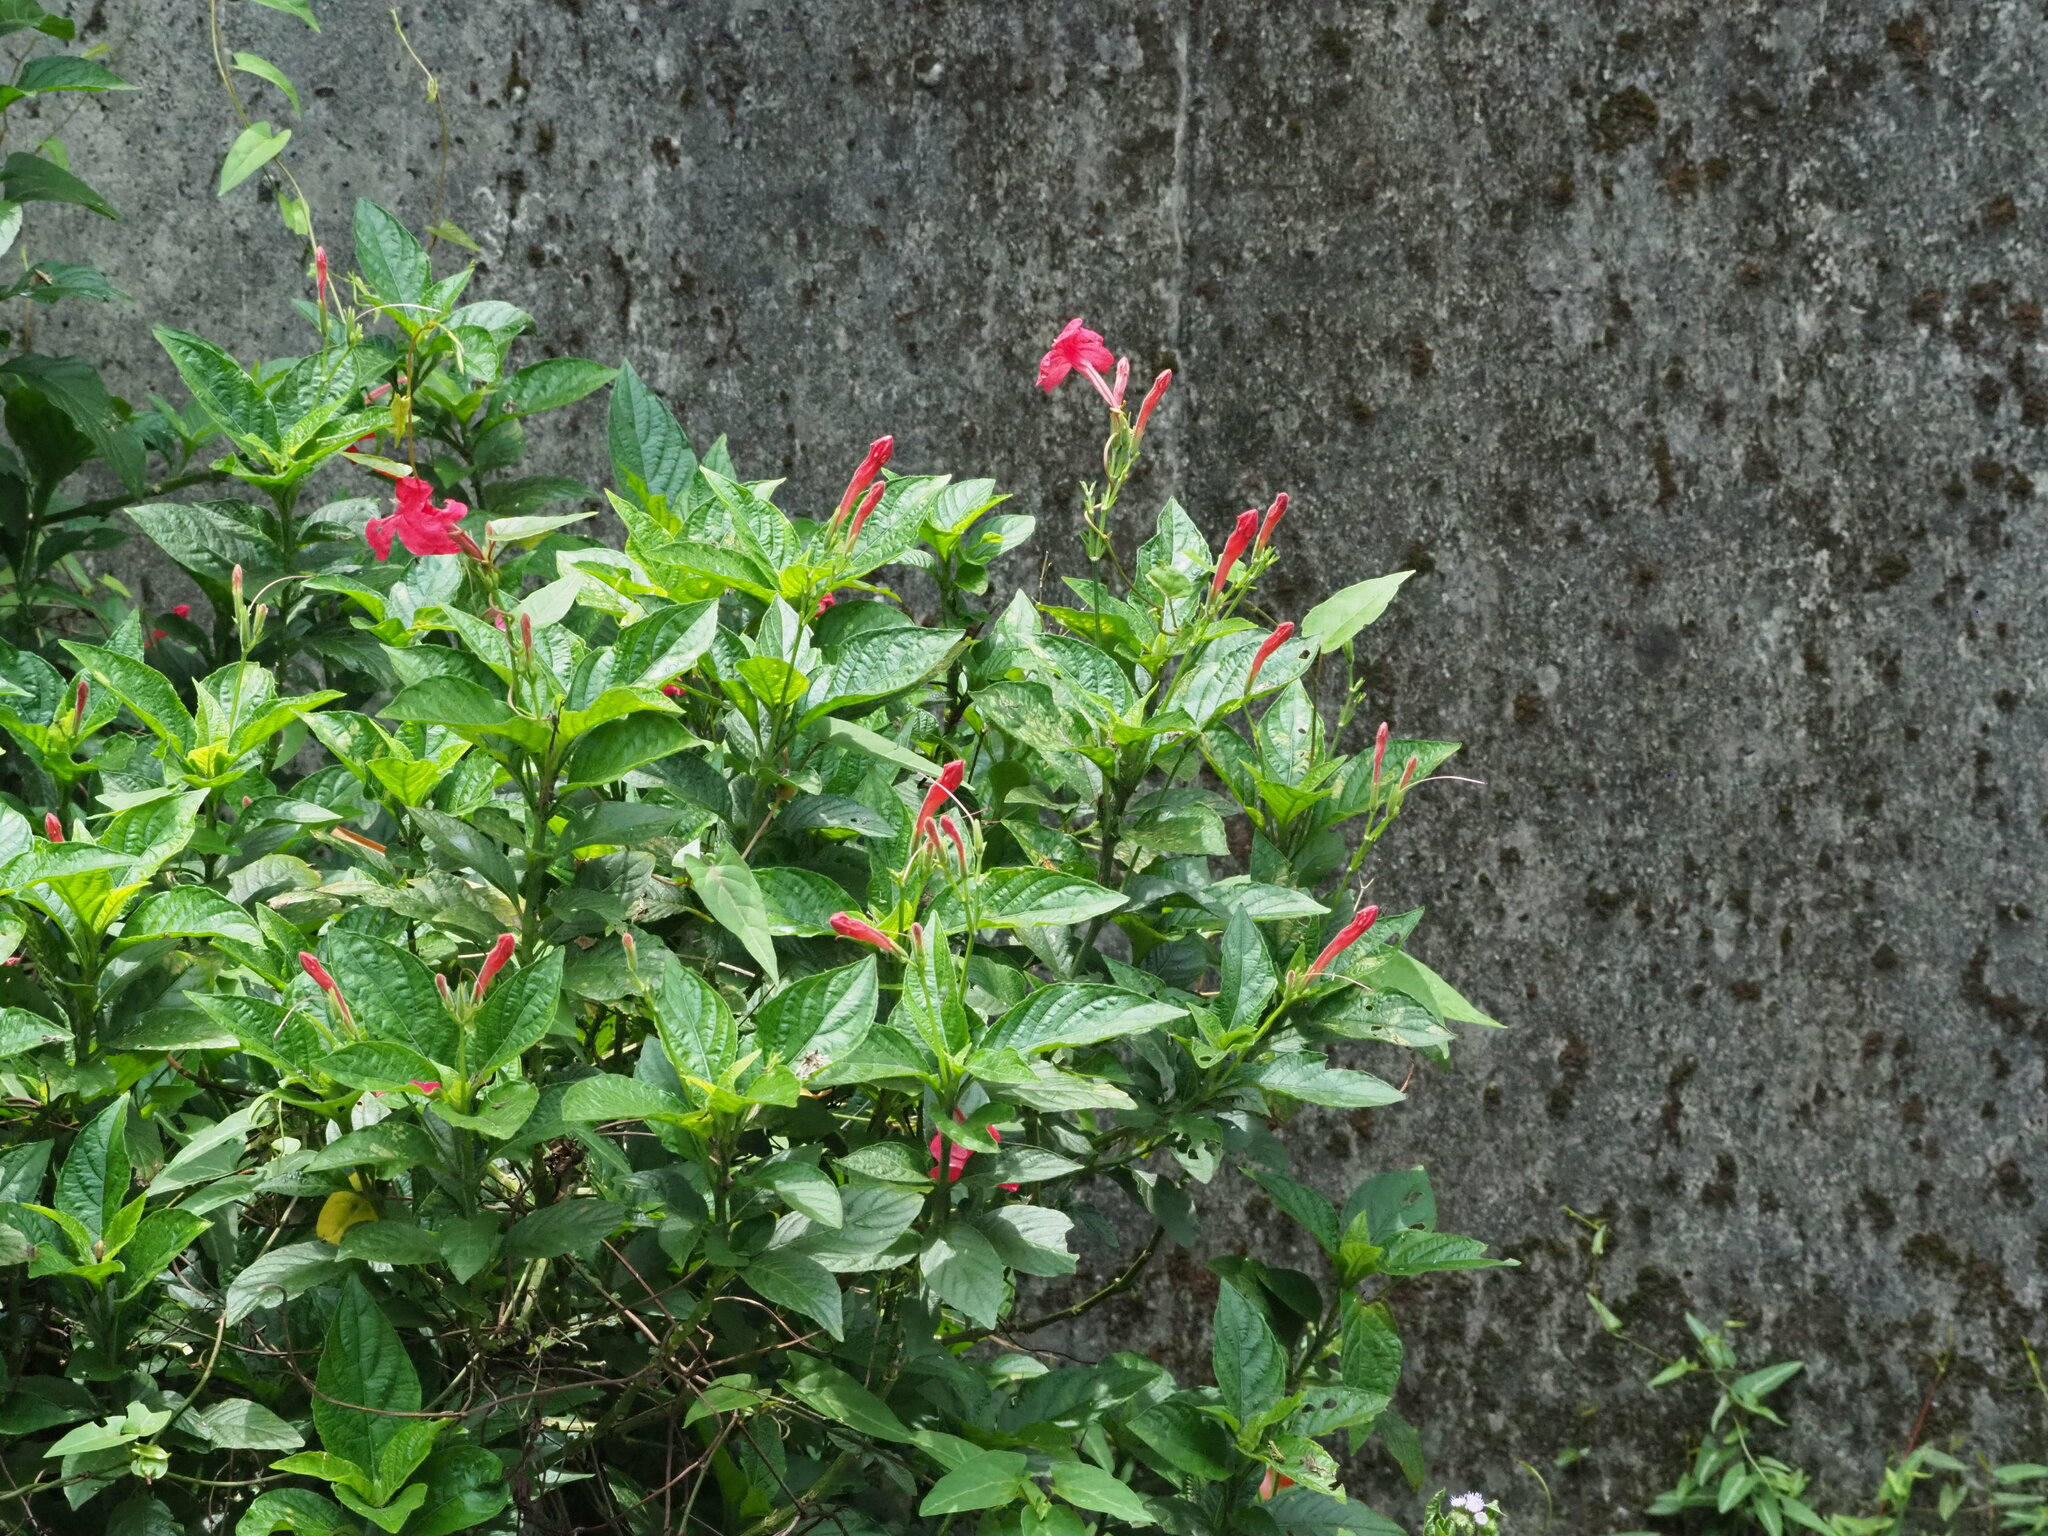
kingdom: Plantae
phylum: Tracheophyta
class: Magnoliopsida
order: Lamiales
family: Acanthaceae
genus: Ruellia
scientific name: Ruellia elegans
